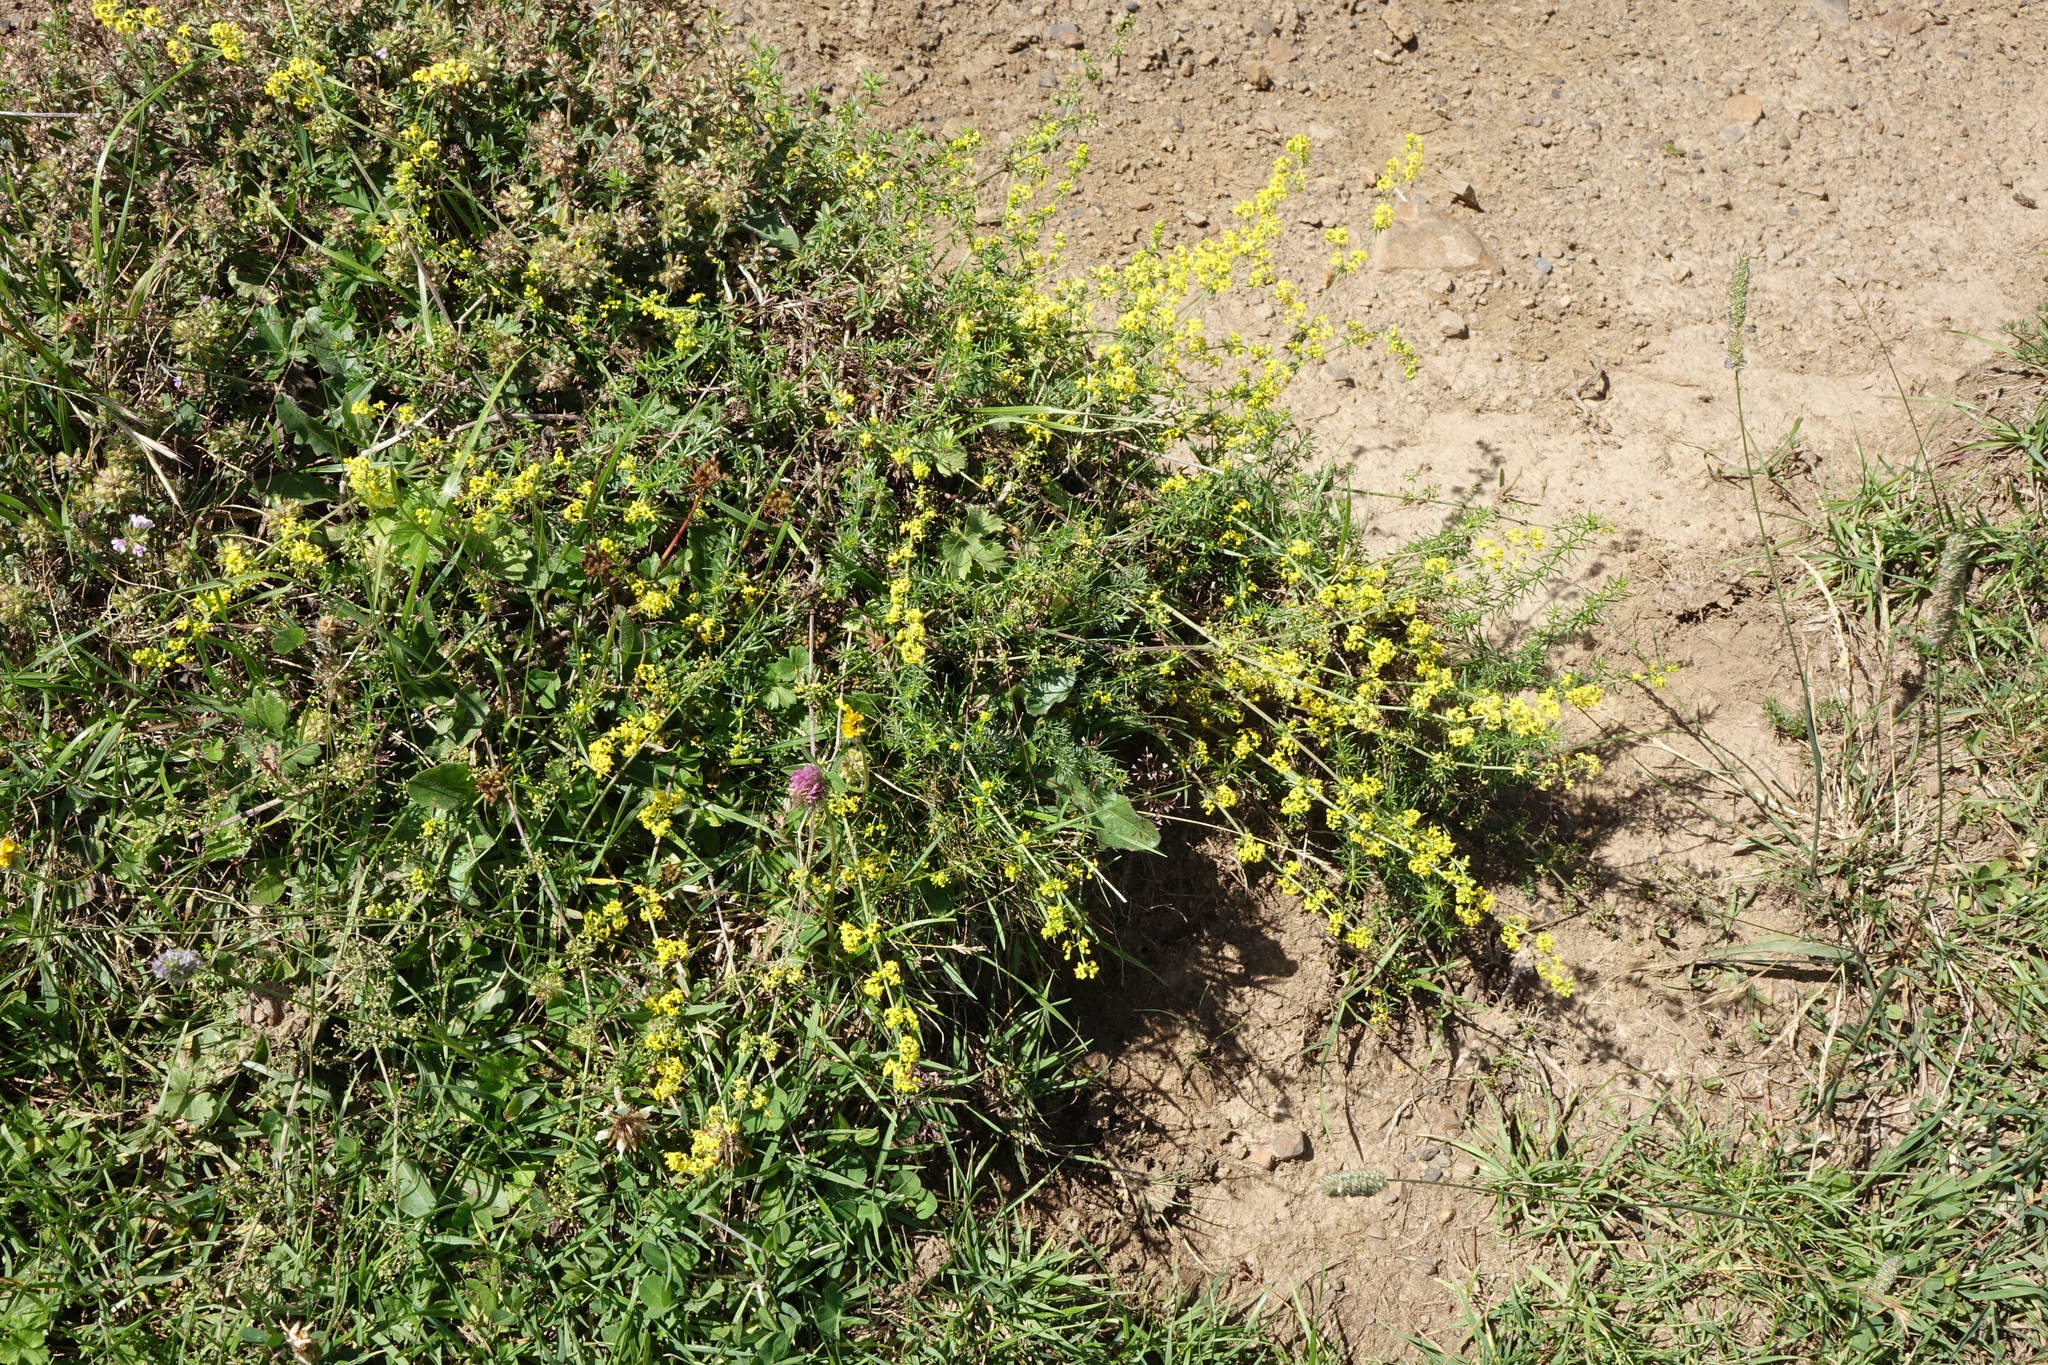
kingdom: Plantae
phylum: Tracheophyta
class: Magnoliopsida
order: Gentianales
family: Rubiaceae
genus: Galium
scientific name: Galium verum
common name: Lady's bedstraw
